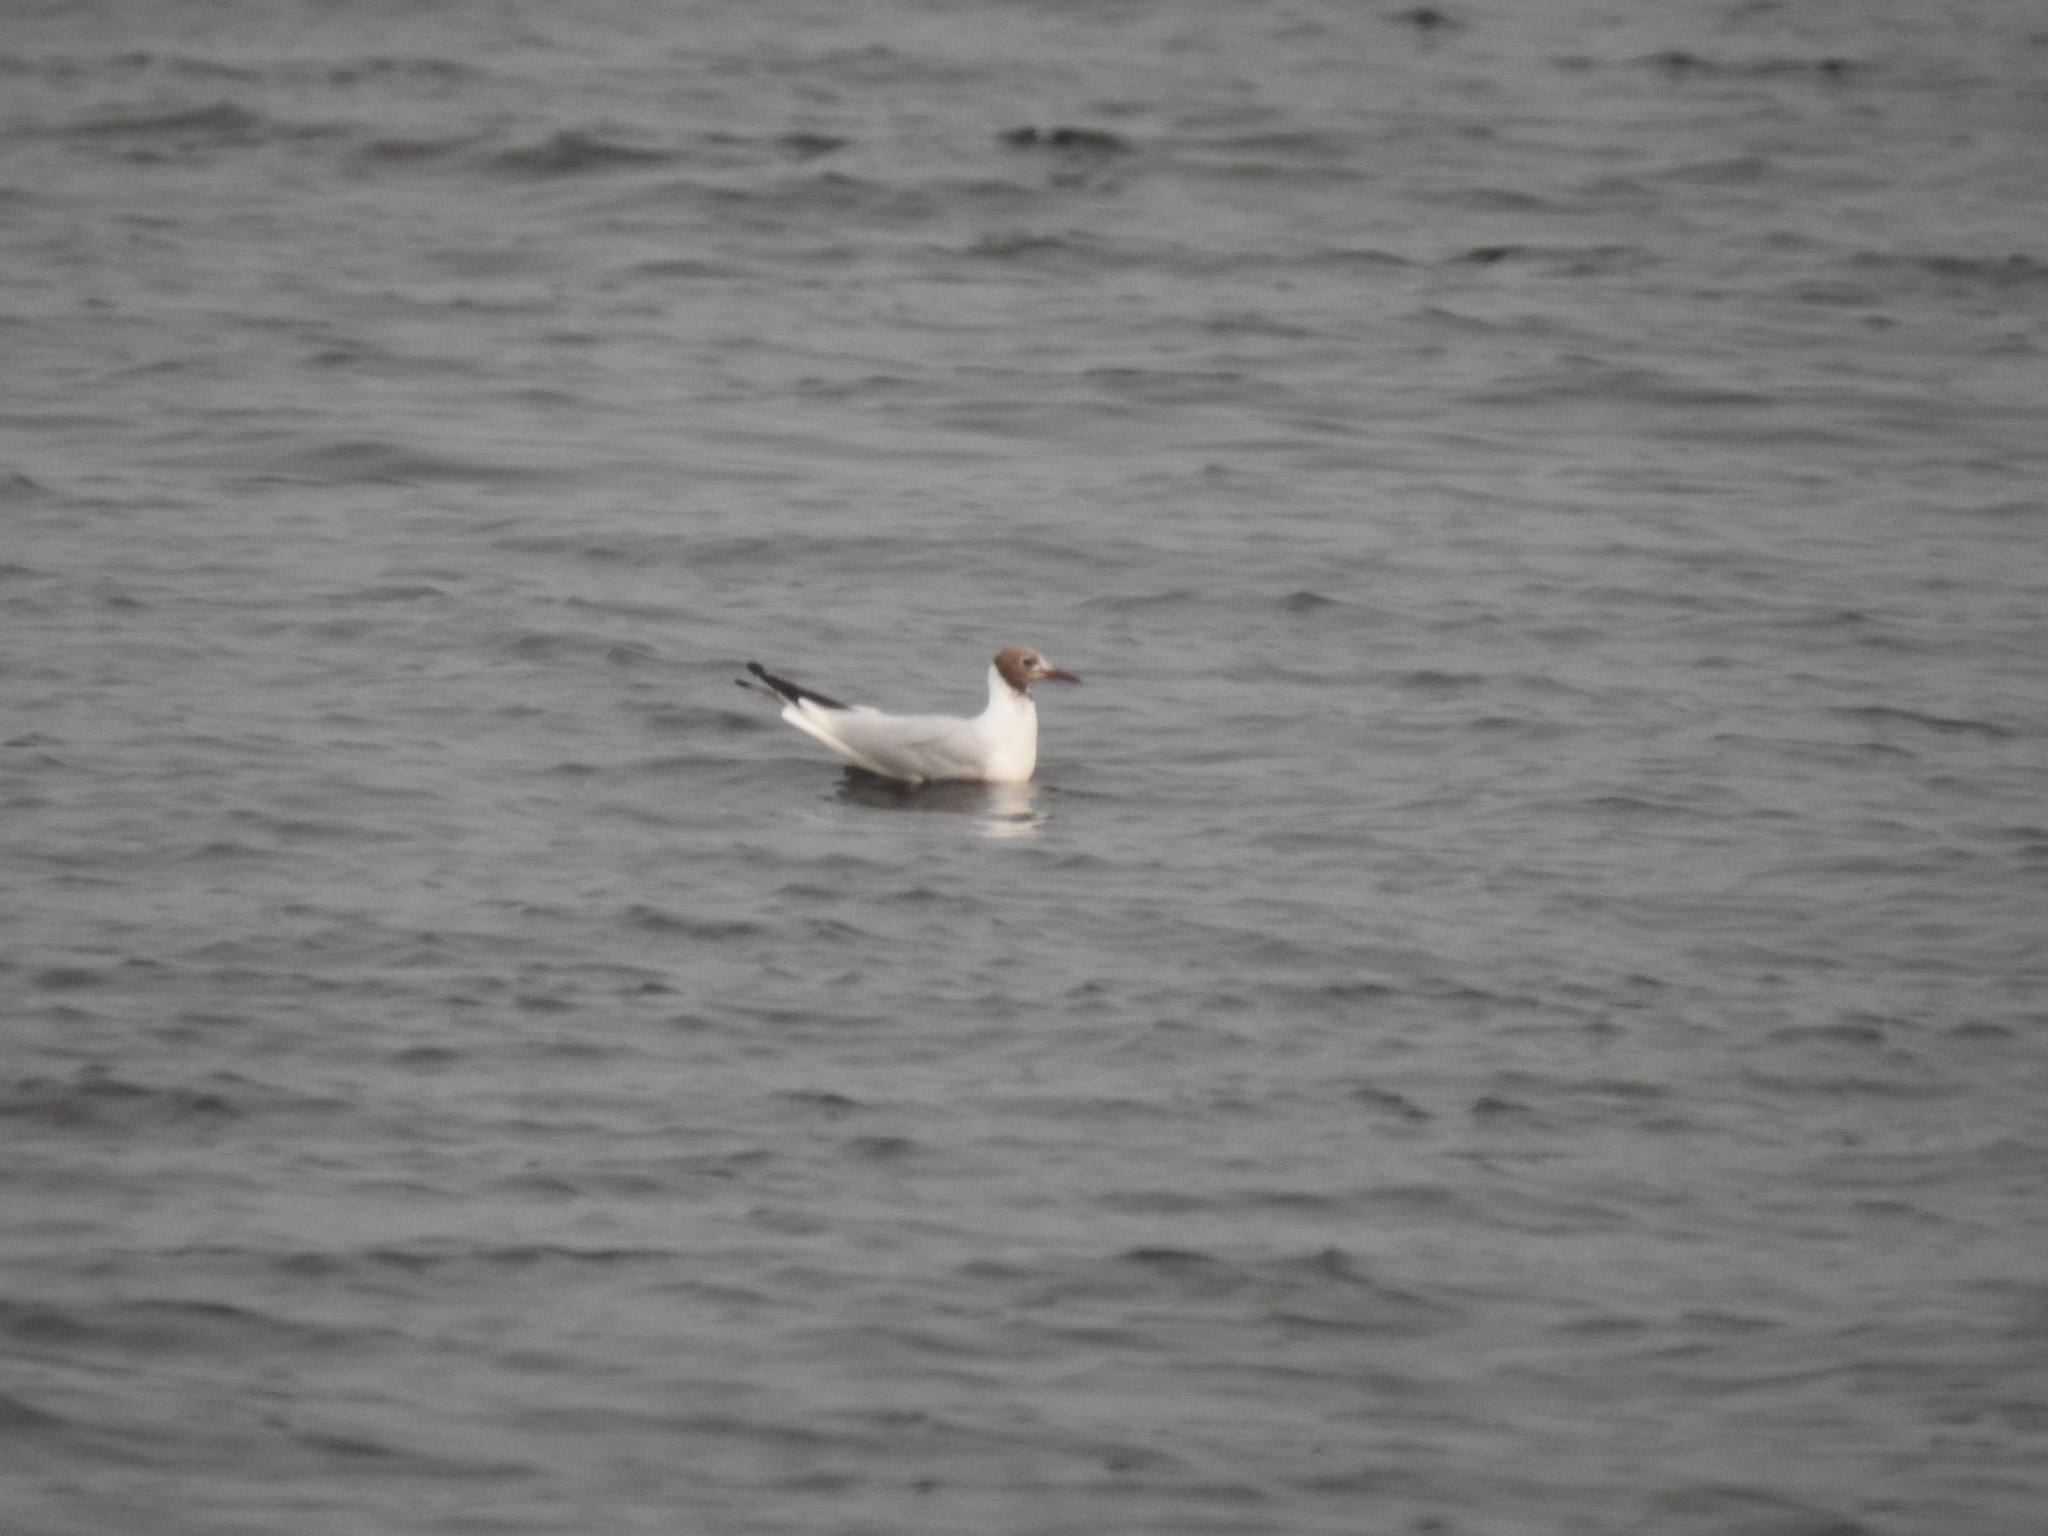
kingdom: Animalia
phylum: Chordata
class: Aves
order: Charadriiformes
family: Laridae
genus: Chroicocephalus
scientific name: Chroicocephalus ridibundus
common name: Black-headed gull
